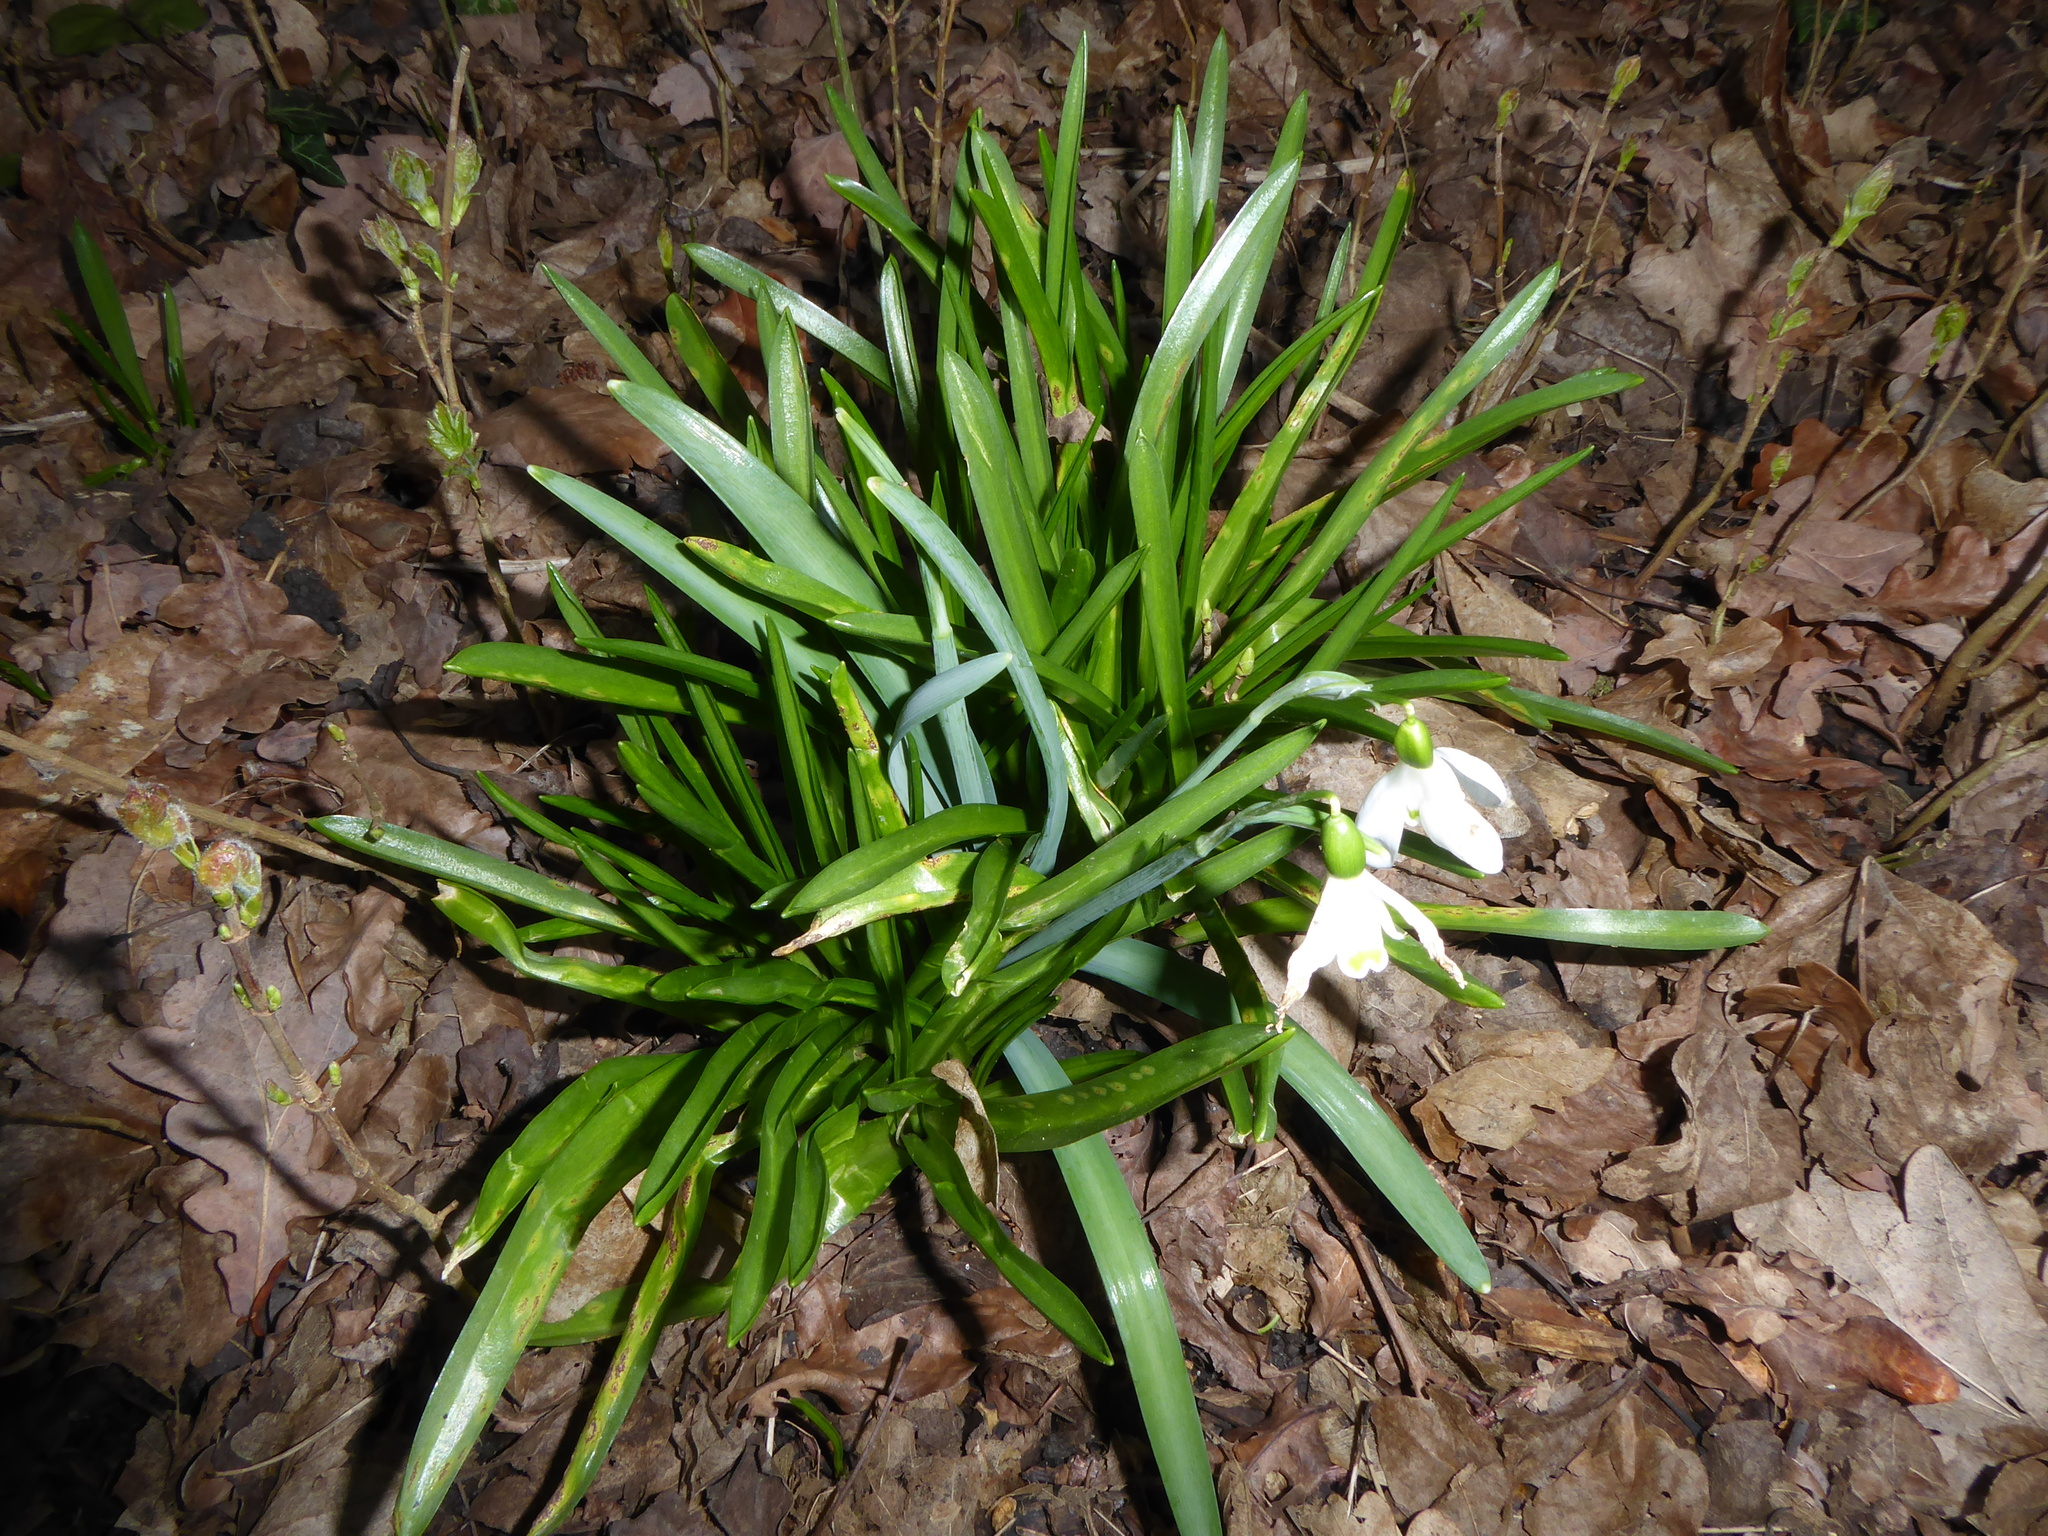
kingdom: Plantae
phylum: Tracheophyta
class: Liliopsida
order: Asparagales
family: Amaryllidaceae
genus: Galanthus
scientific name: Galanthus nivalis
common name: Snowdrop
